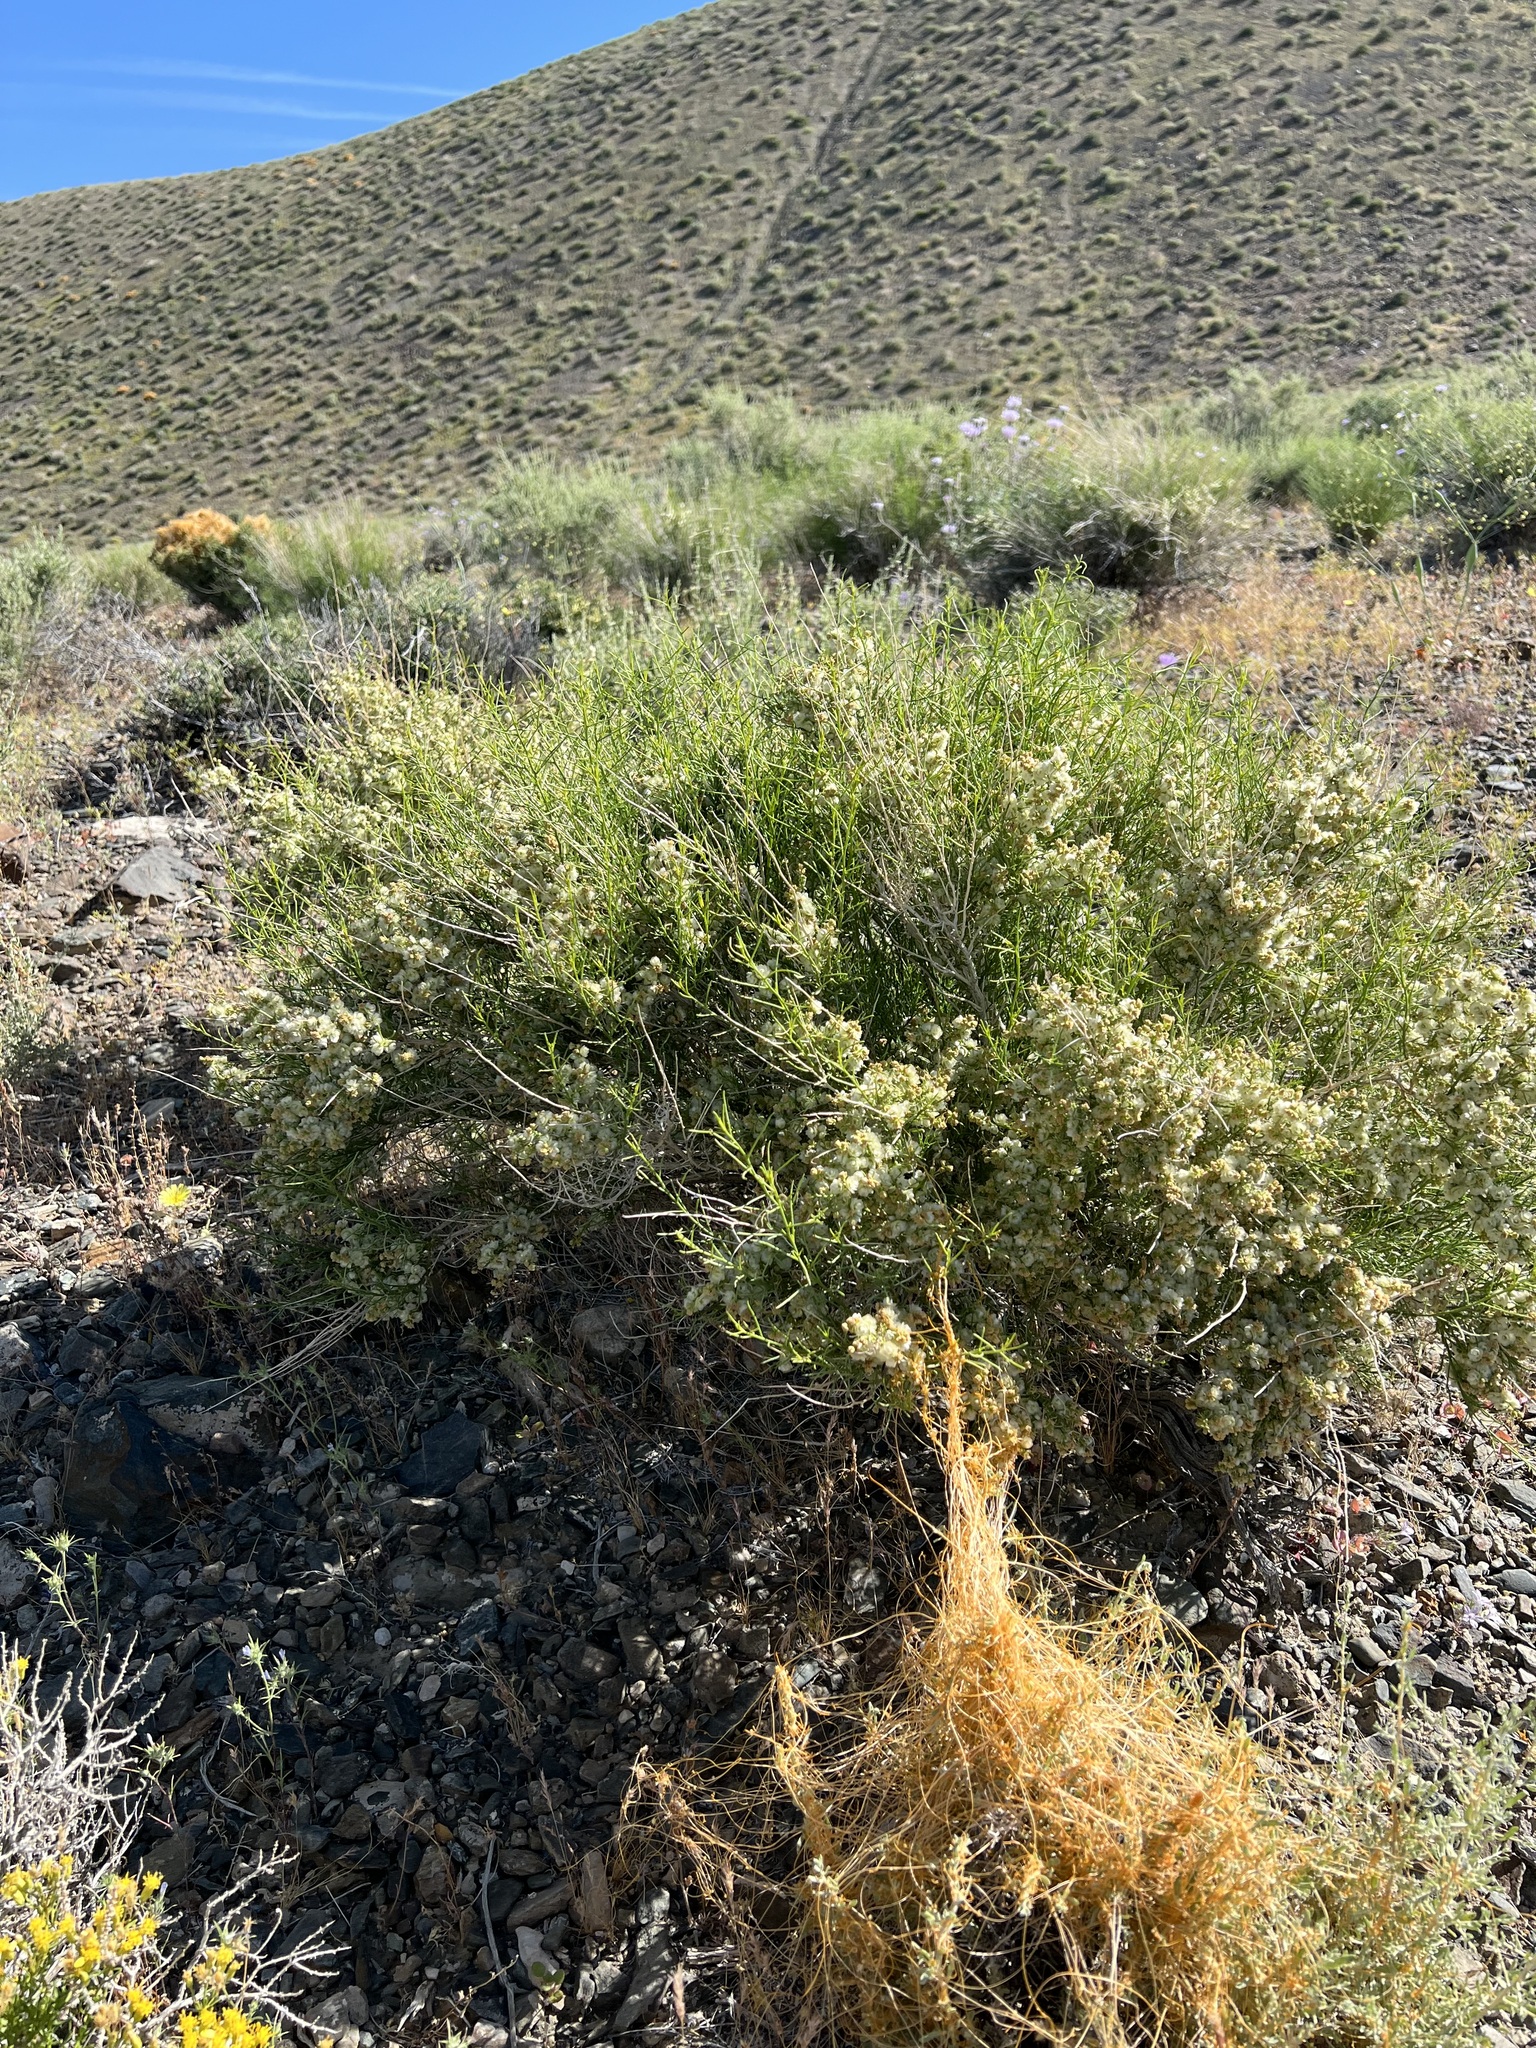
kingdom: Plantae
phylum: Tracheophyta
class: Magnoliopsida
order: Asterales
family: Asteraceae
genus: Ambrosia
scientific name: Ambrosia salsola
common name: Burrobrush
